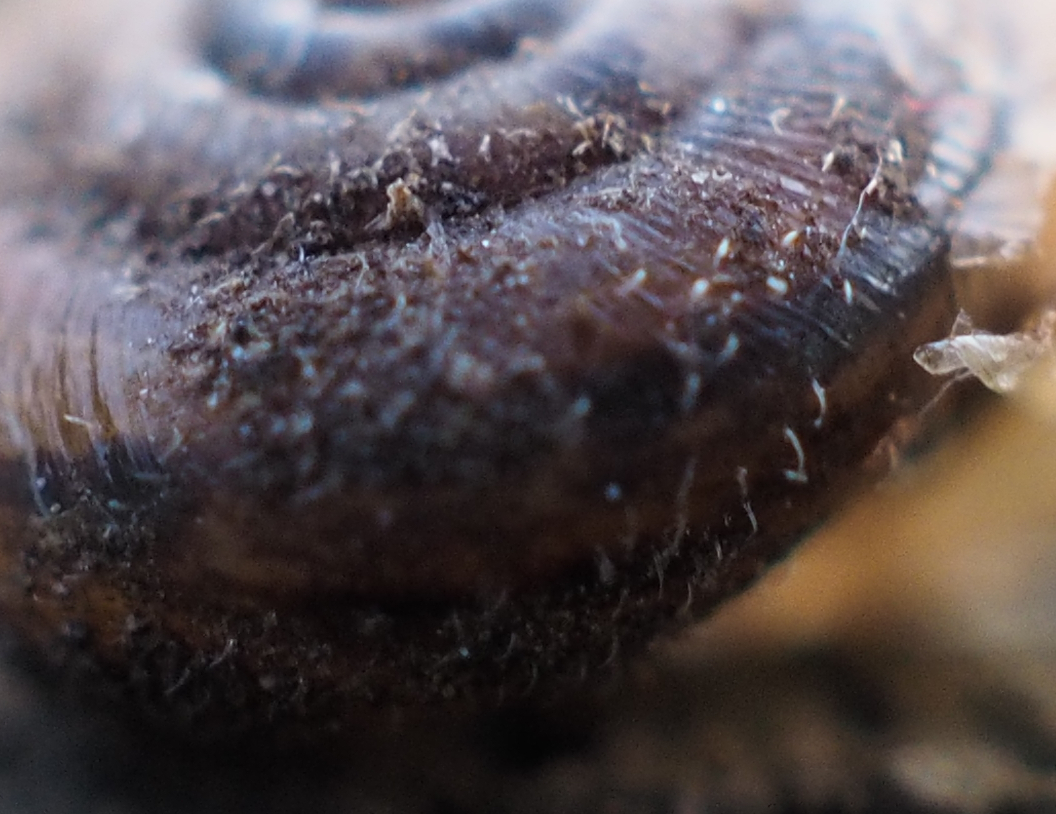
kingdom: Animalia
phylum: Mollusca
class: Gastropoda
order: Stylommatophora
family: Hygromiidae
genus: Trochulus
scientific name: Trochulus hispidus
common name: Hairy snail
